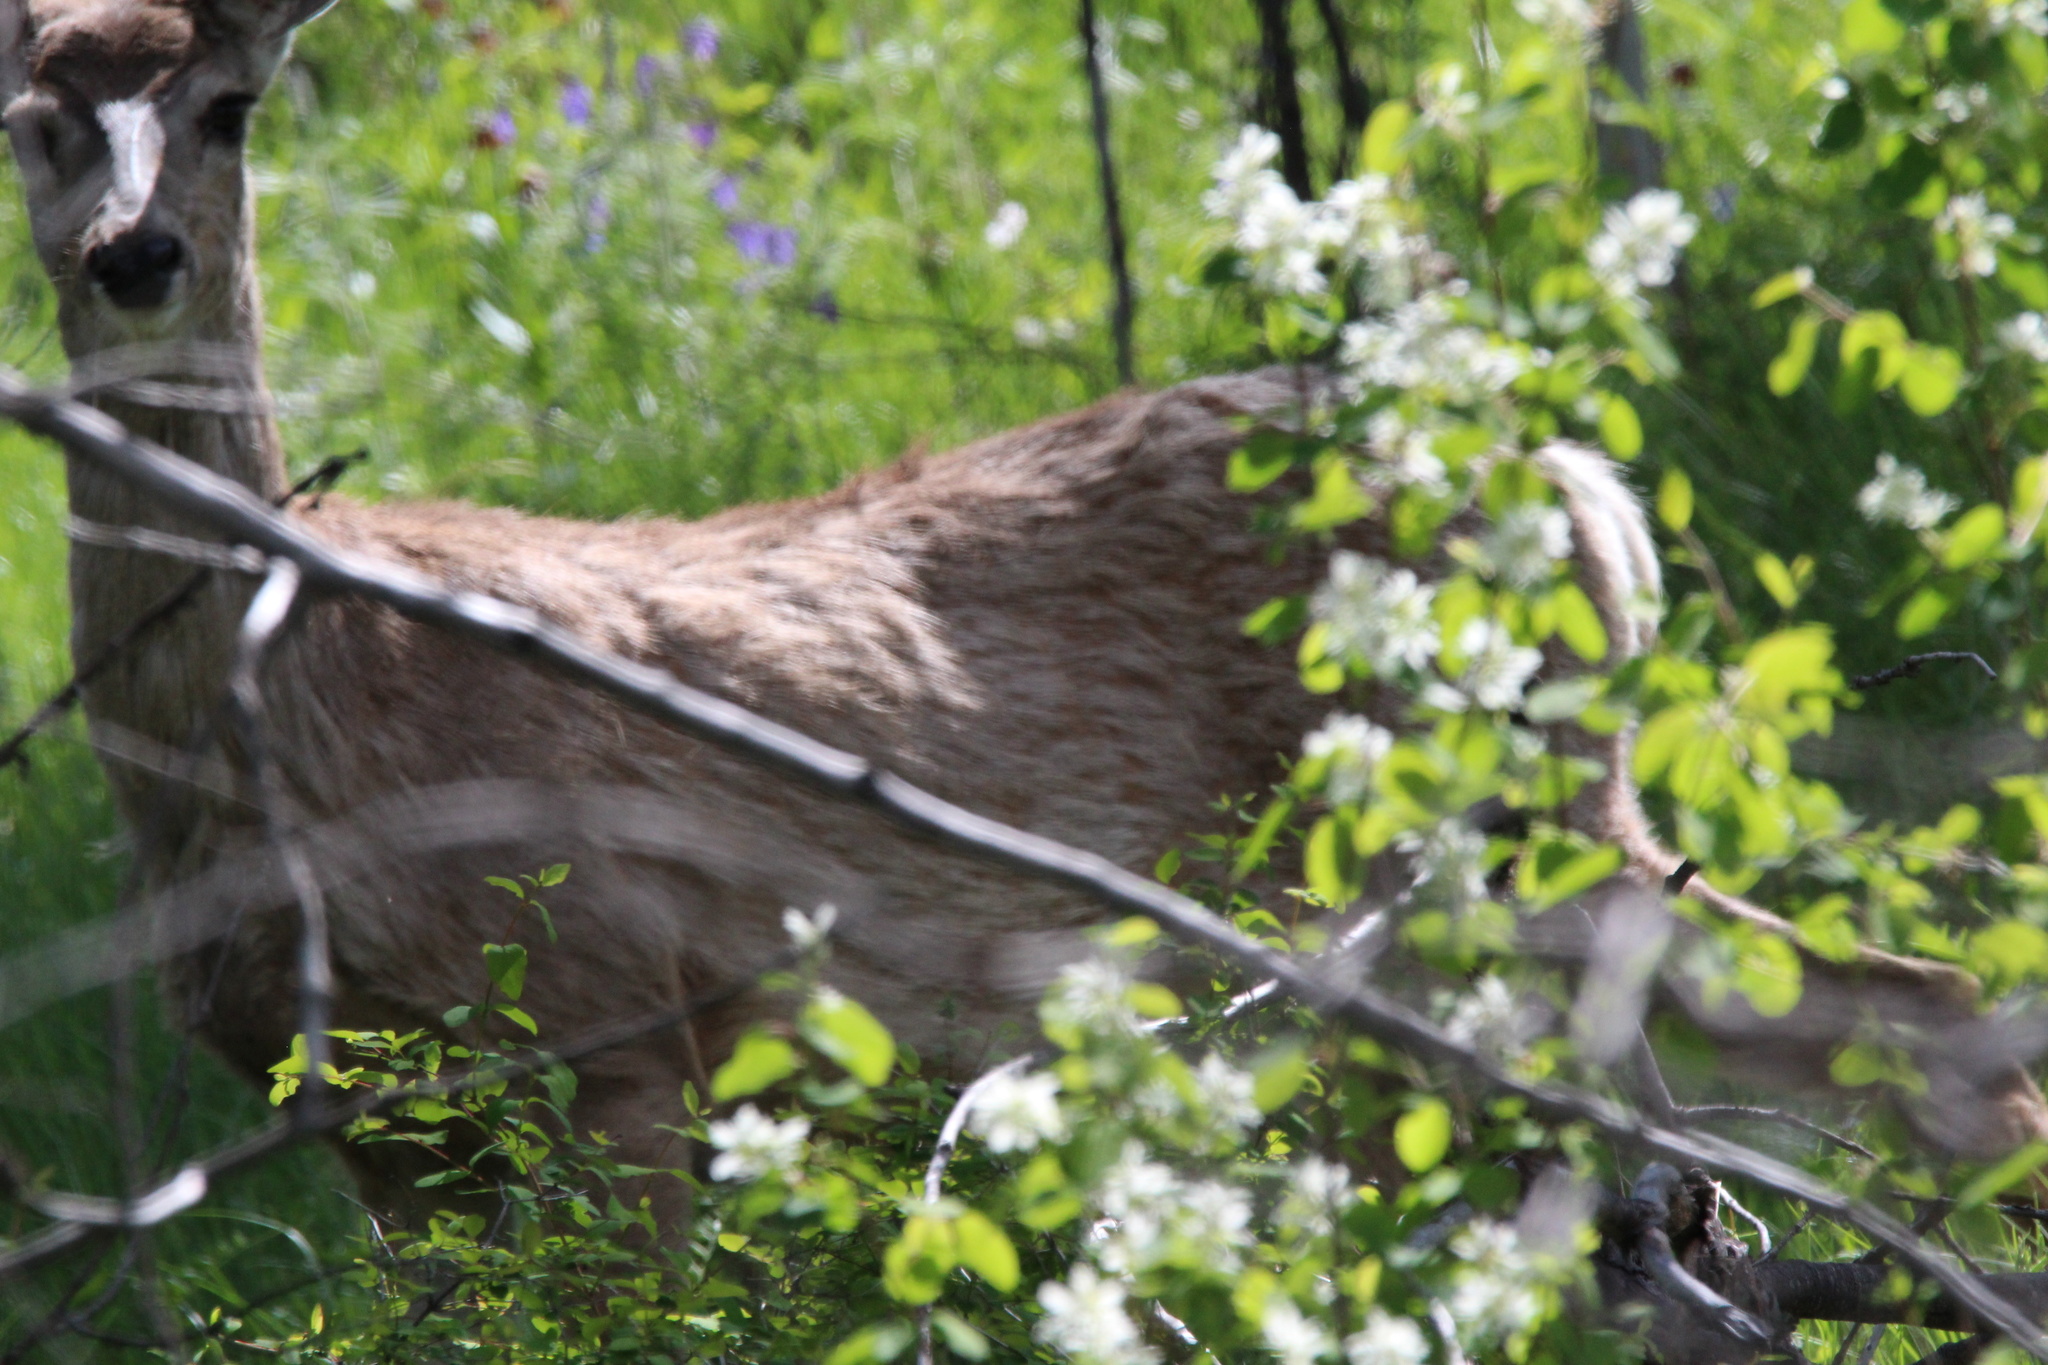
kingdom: Animalia
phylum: Chordata
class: Mammalia
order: Artiodactyla
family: Cervidae
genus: Odocoileus
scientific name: Odocoileus hemionus
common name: Mule deer
